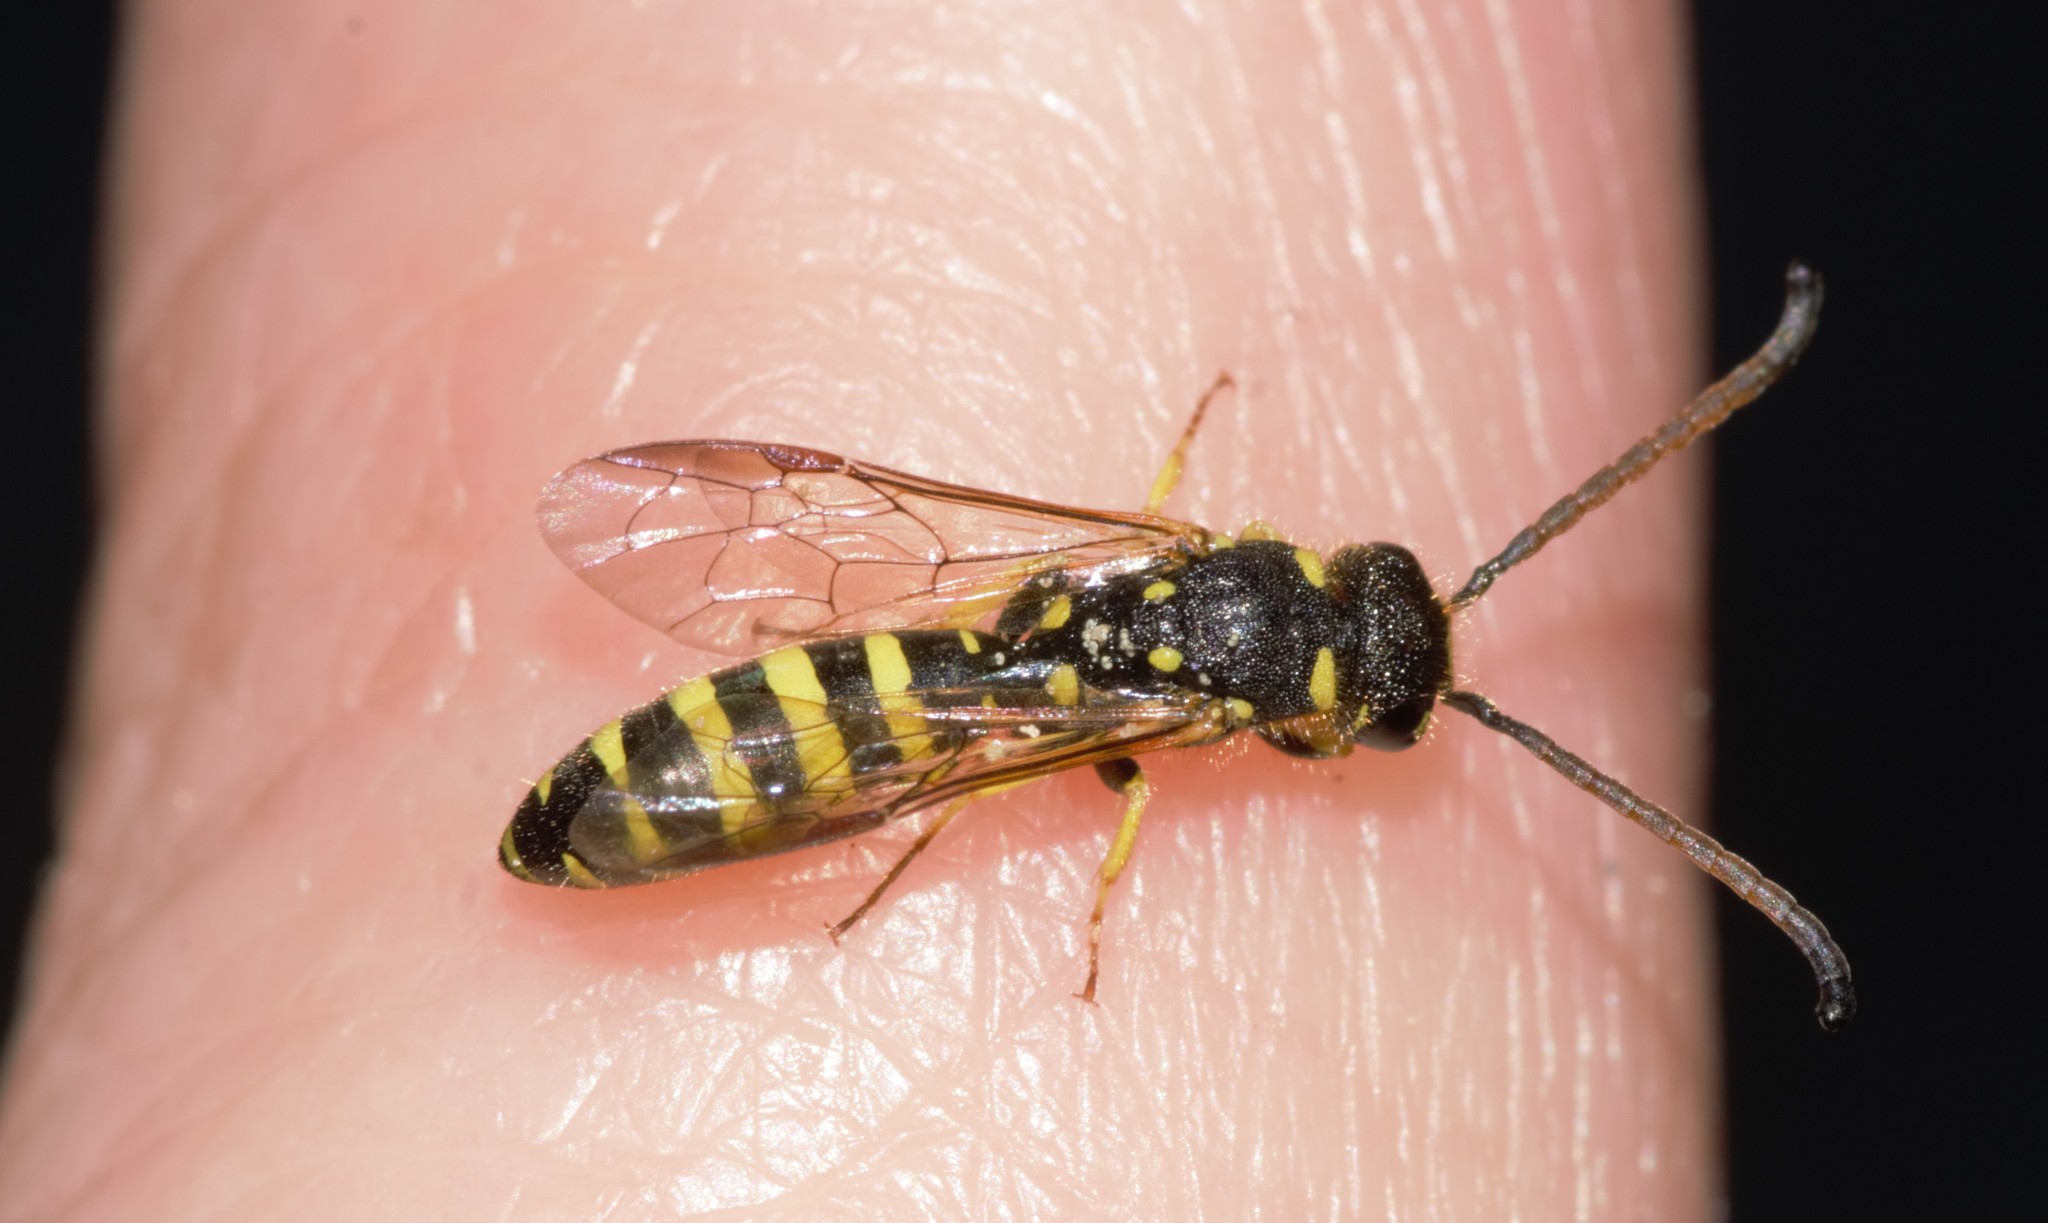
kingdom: Animalia
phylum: Arthropoda
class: Insecta
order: Hymenoptera
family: Sapygidae
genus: Sapyga
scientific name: Sapyga centrata
